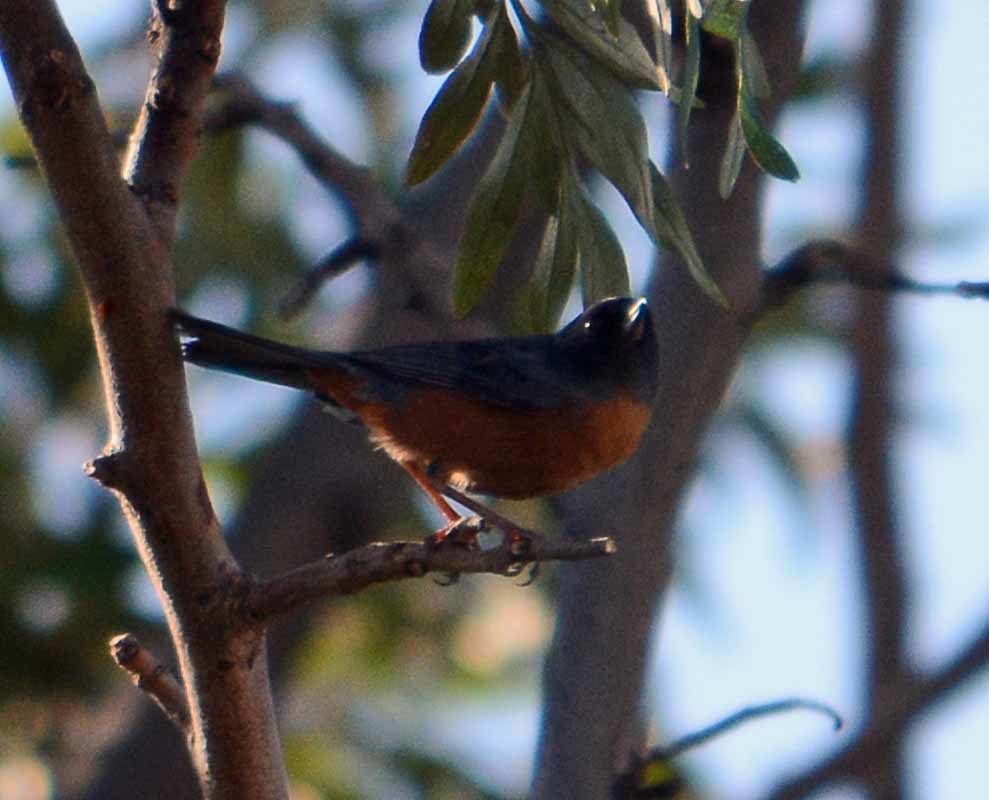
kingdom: Animalia
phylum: Chordata
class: Aves
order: Passeriformes
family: Thraupidae
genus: Diglossa
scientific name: Diglossa baritula
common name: Cinnamon-bellied flowerpiercer
